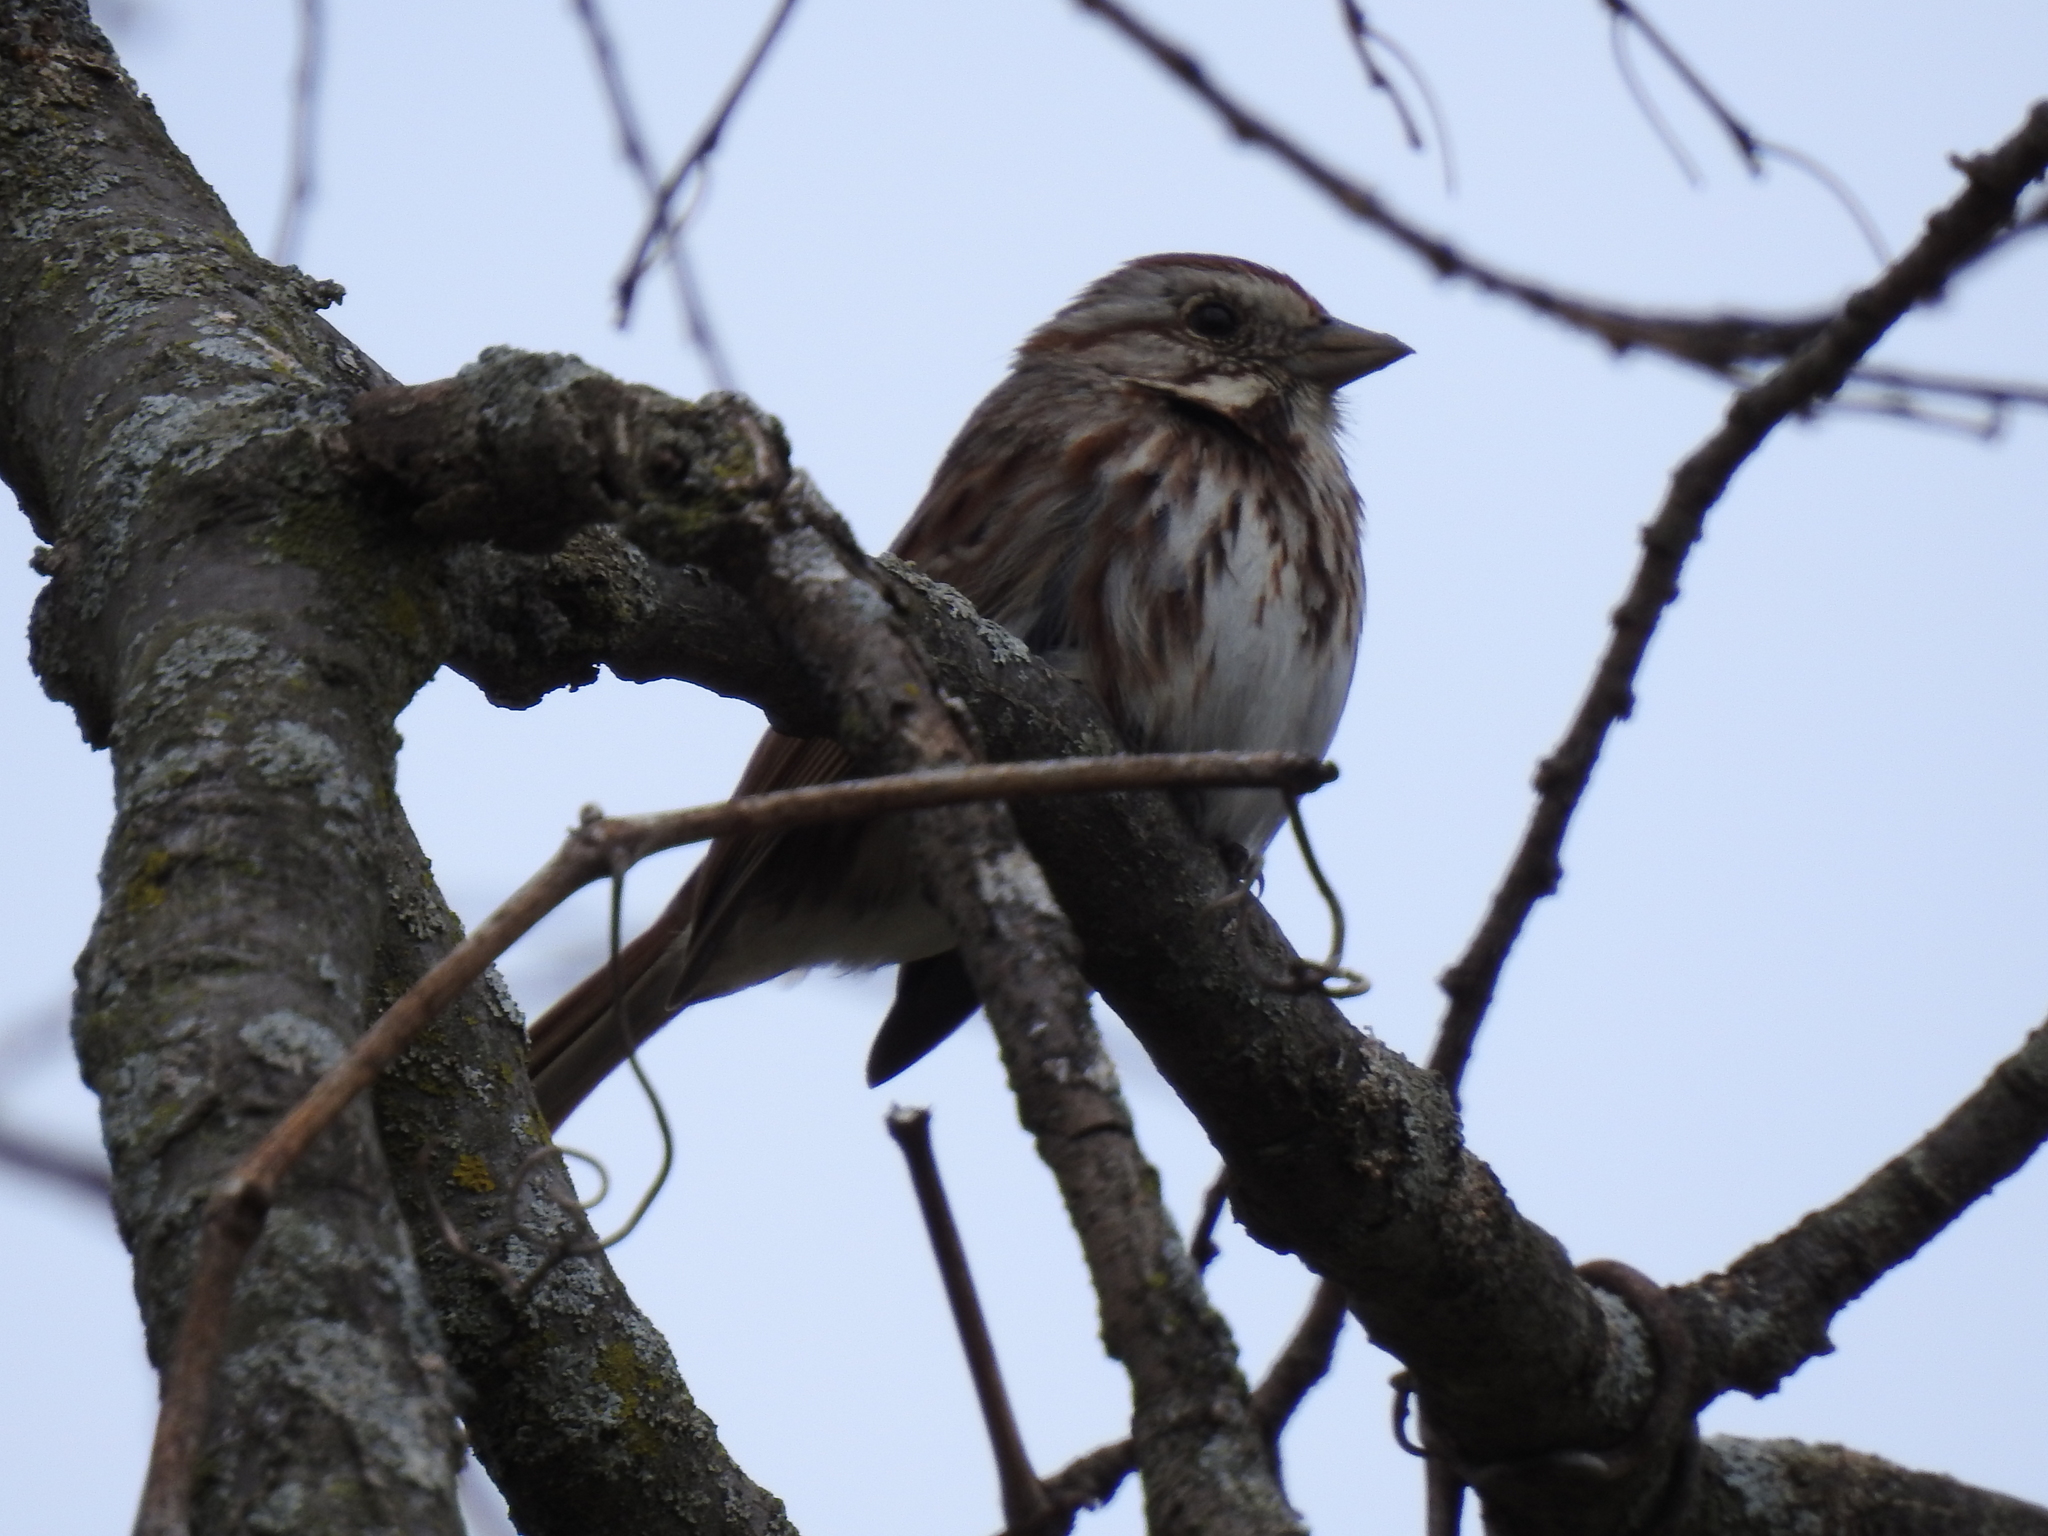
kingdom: Animalia
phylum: Chordata
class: Aves
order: Passeriformes
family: Passerellidae
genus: Melospiza
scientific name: Melospiza melodia
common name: Song sparrow
